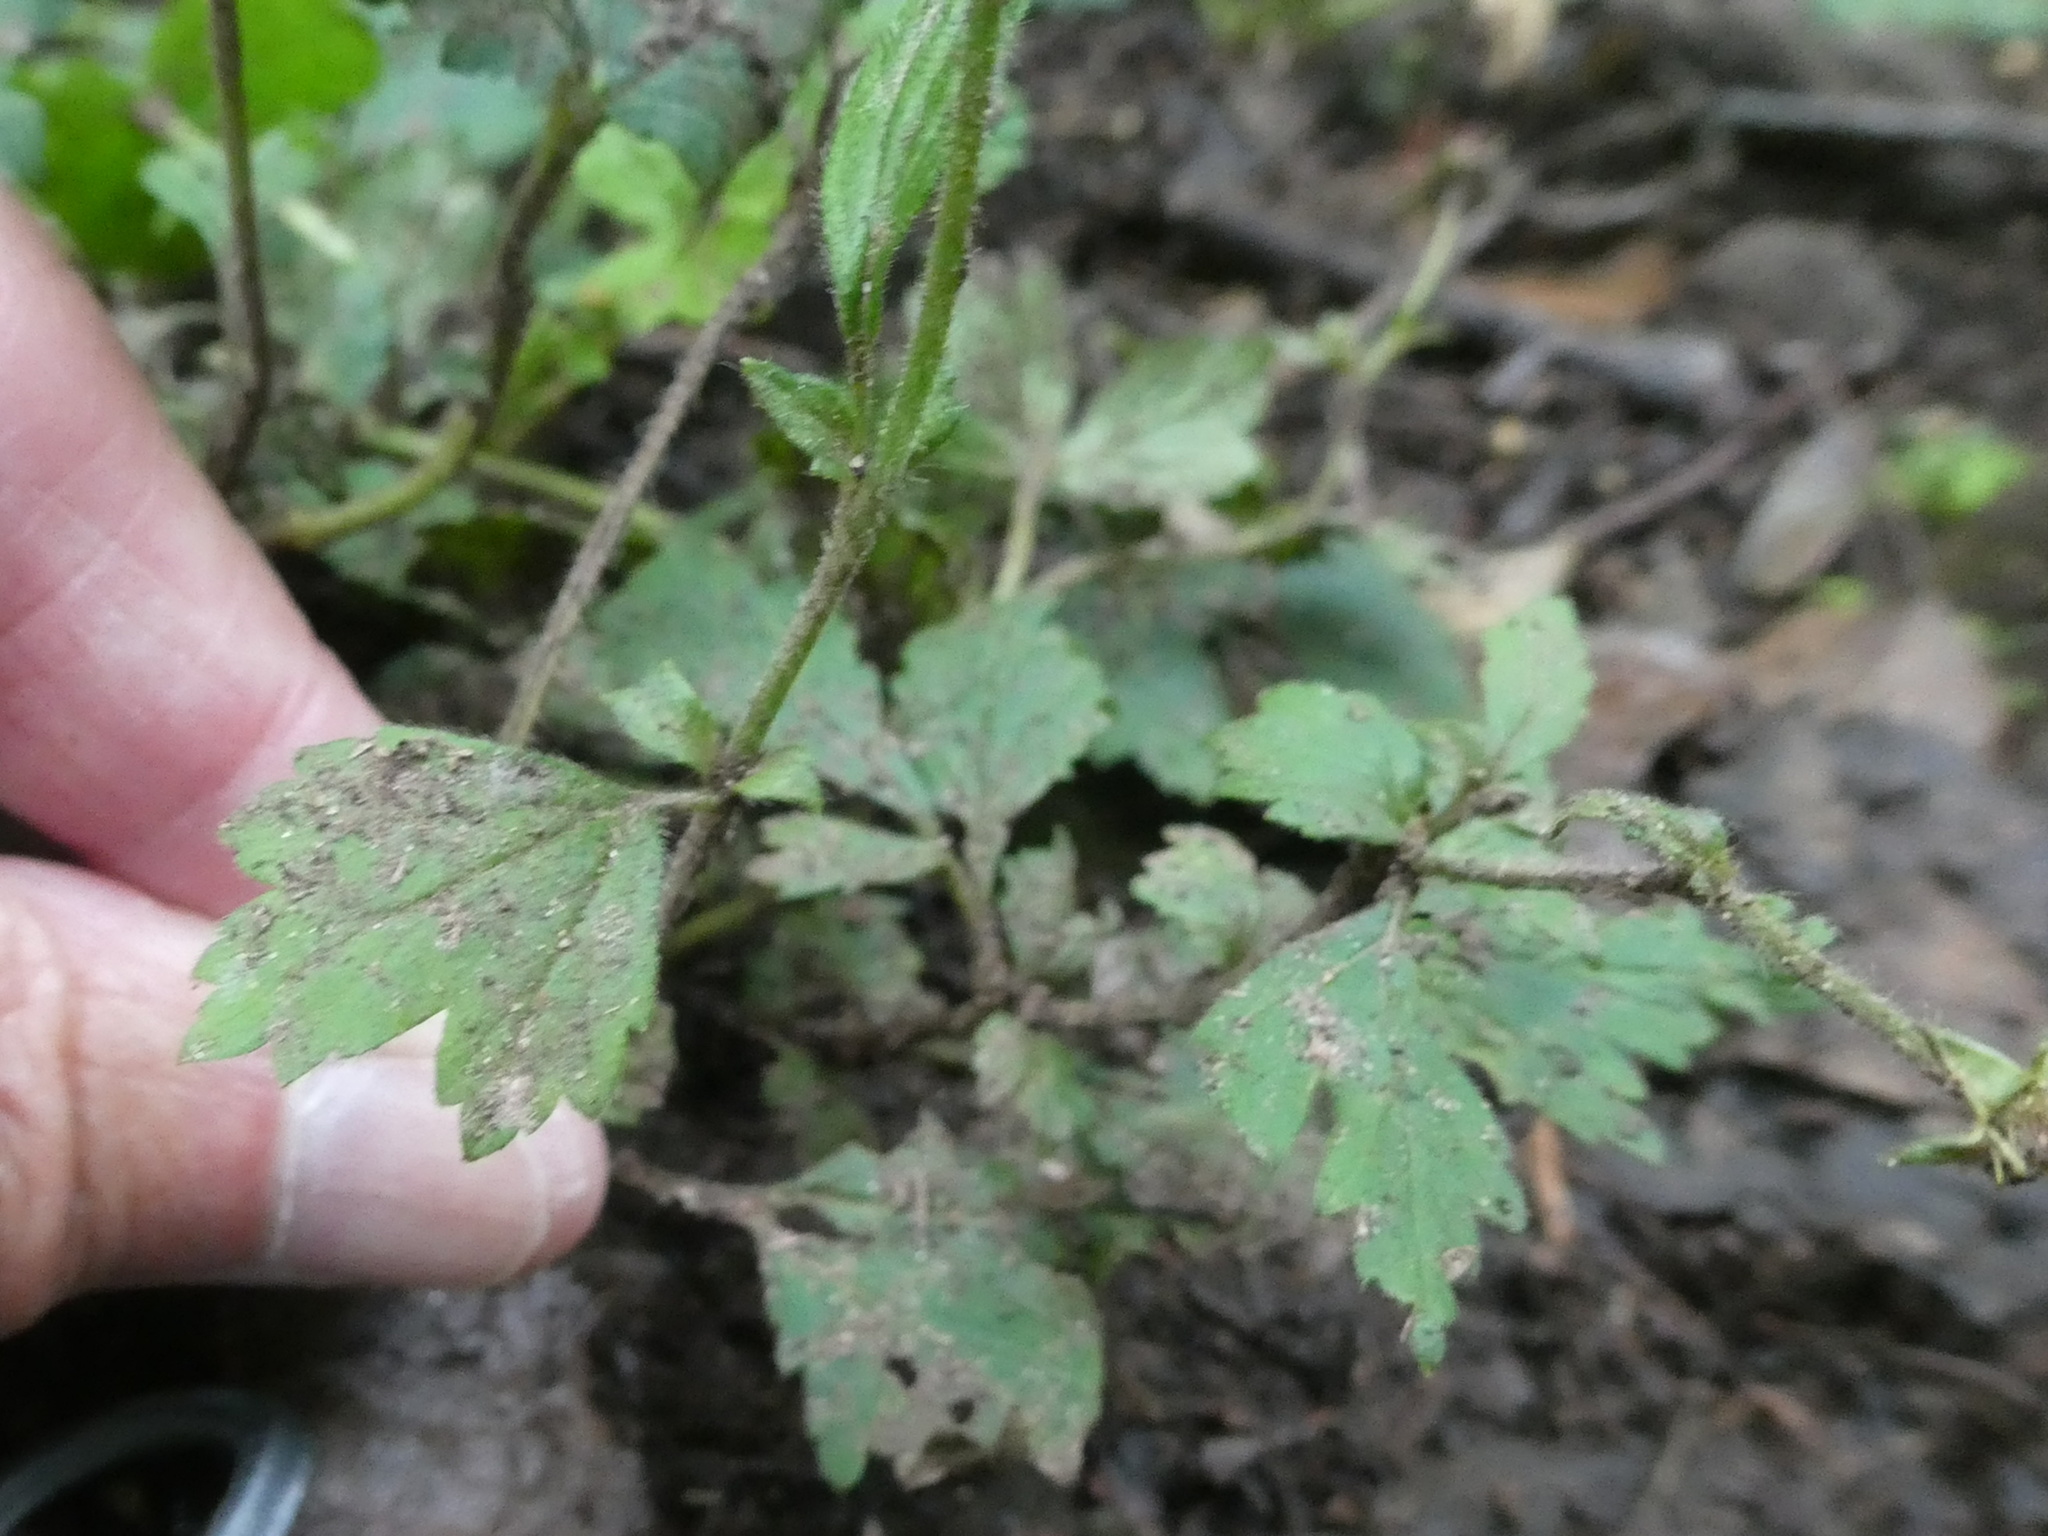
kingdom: Plantae
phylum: Tracheophyta
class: Magnoliopsida
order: Rosales
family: Rosaceae
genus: Geum
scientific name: Geum urbanum
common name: Wood avens
